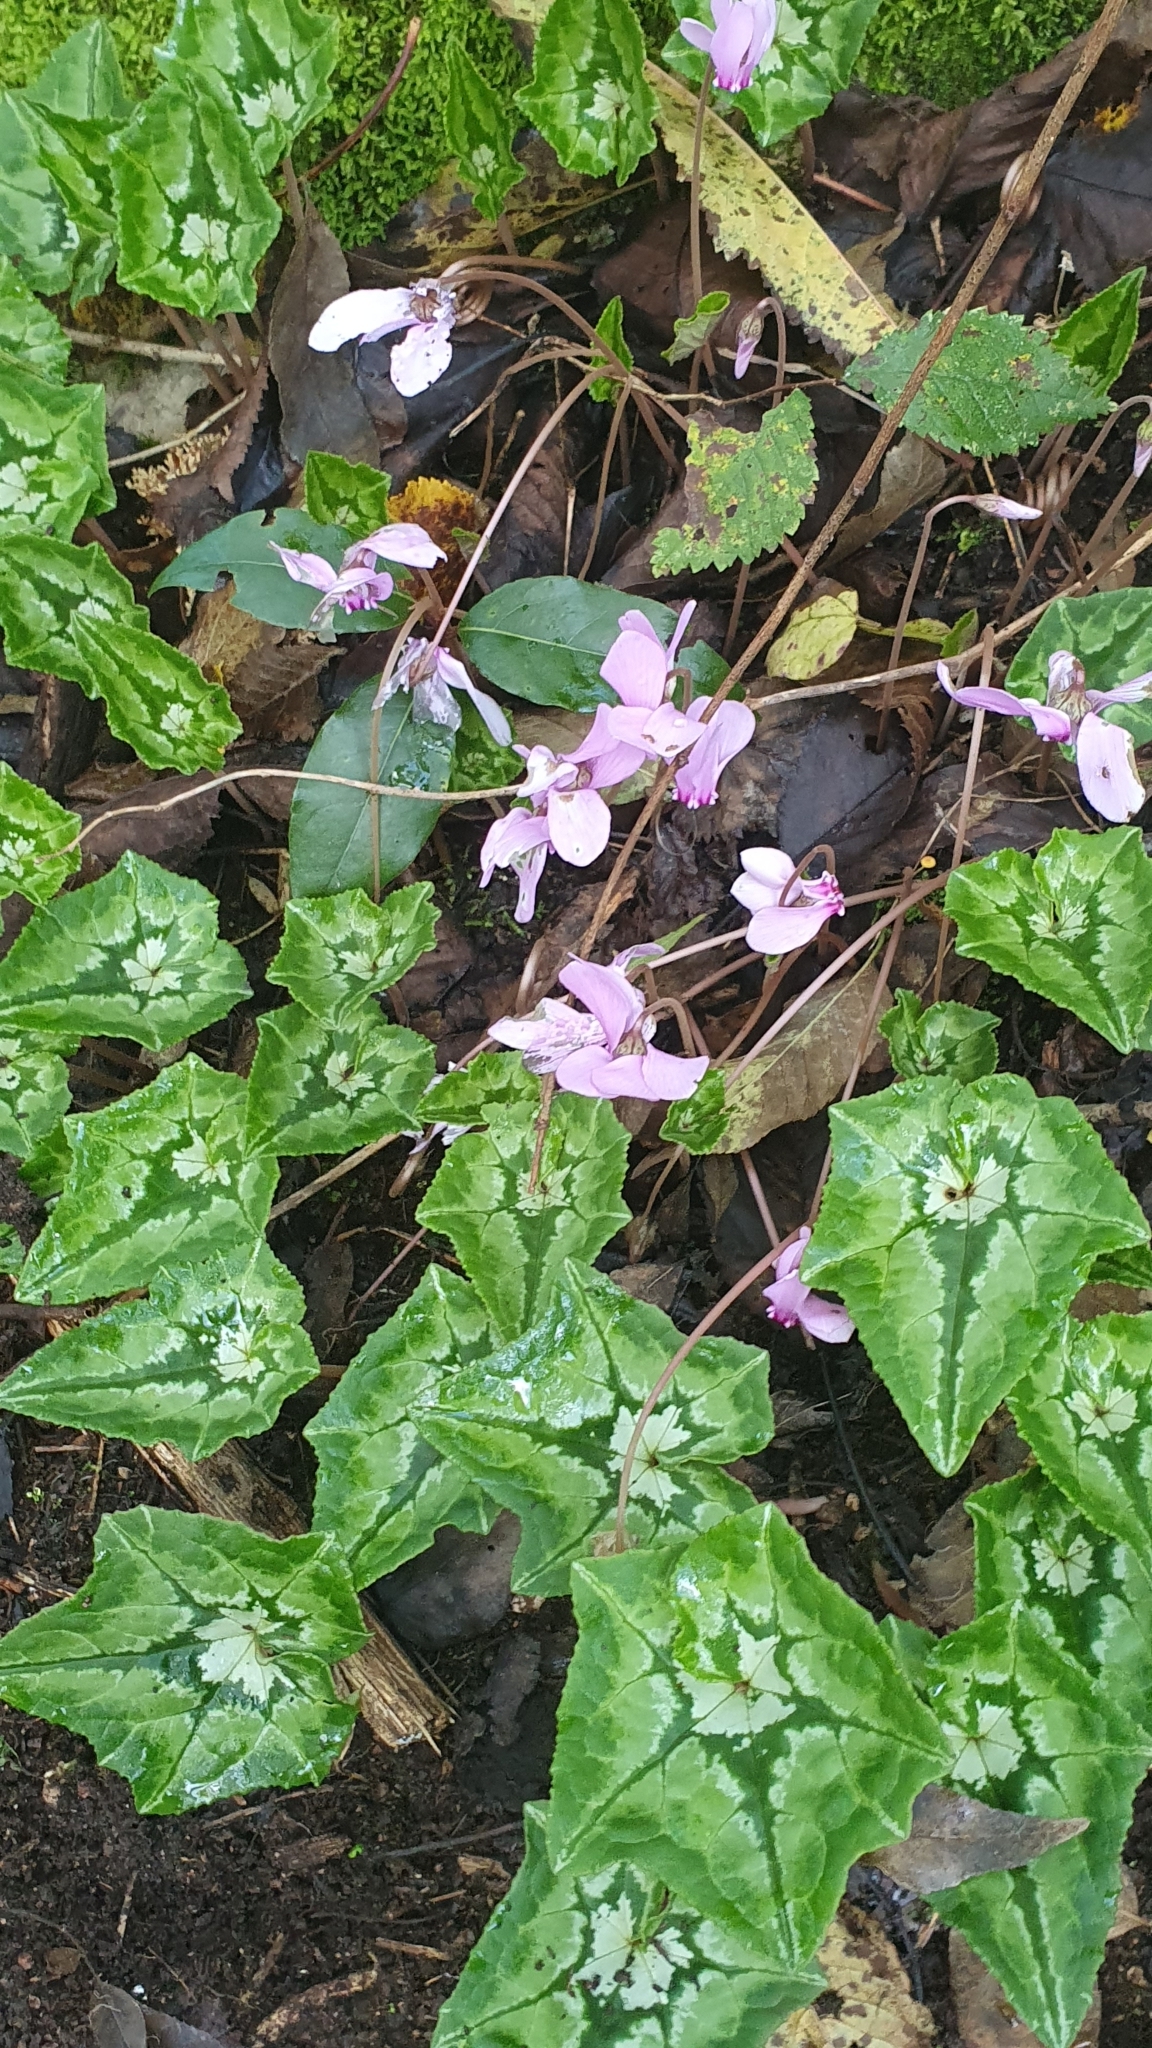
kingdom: Plantae
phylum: Tracheophyta
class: Magnoliopsida
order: Ericales
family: Primulaceae
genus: Cyclamen
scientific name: Cyclamen hederifolium
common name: Sowbread
